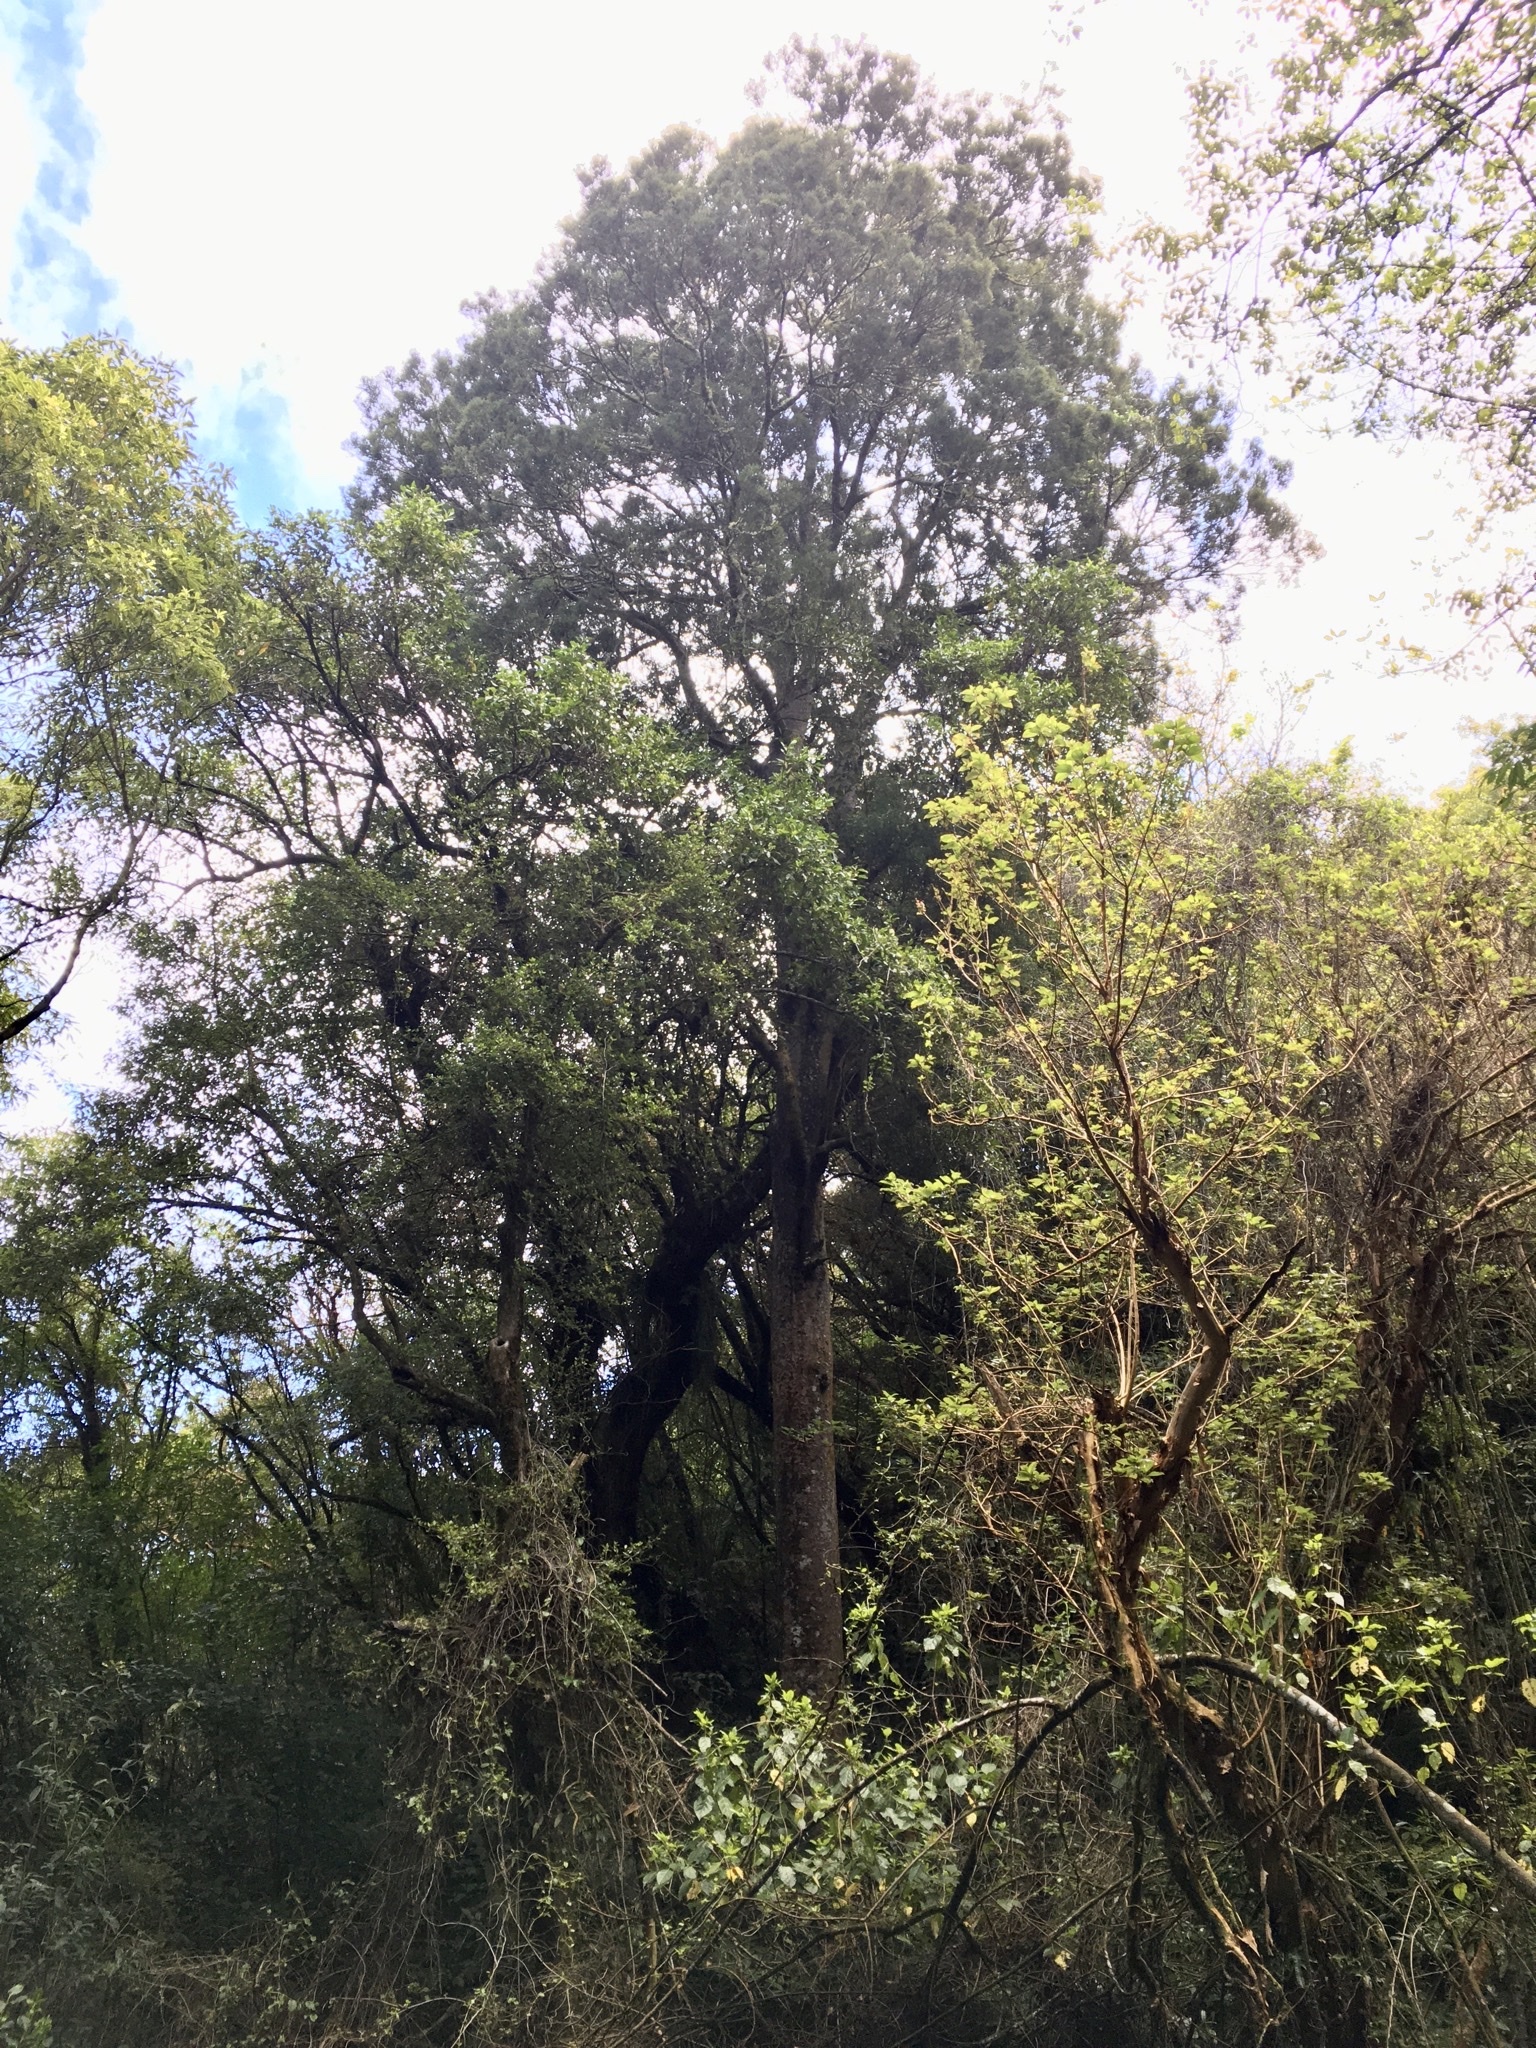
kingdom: Plantae
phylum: Tracheophyta
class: Pinopsida
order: Pinales
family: Podocarpaceae
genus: Dacrycarpus
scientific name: Dacrycarpus dacrydioides
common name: White pine
